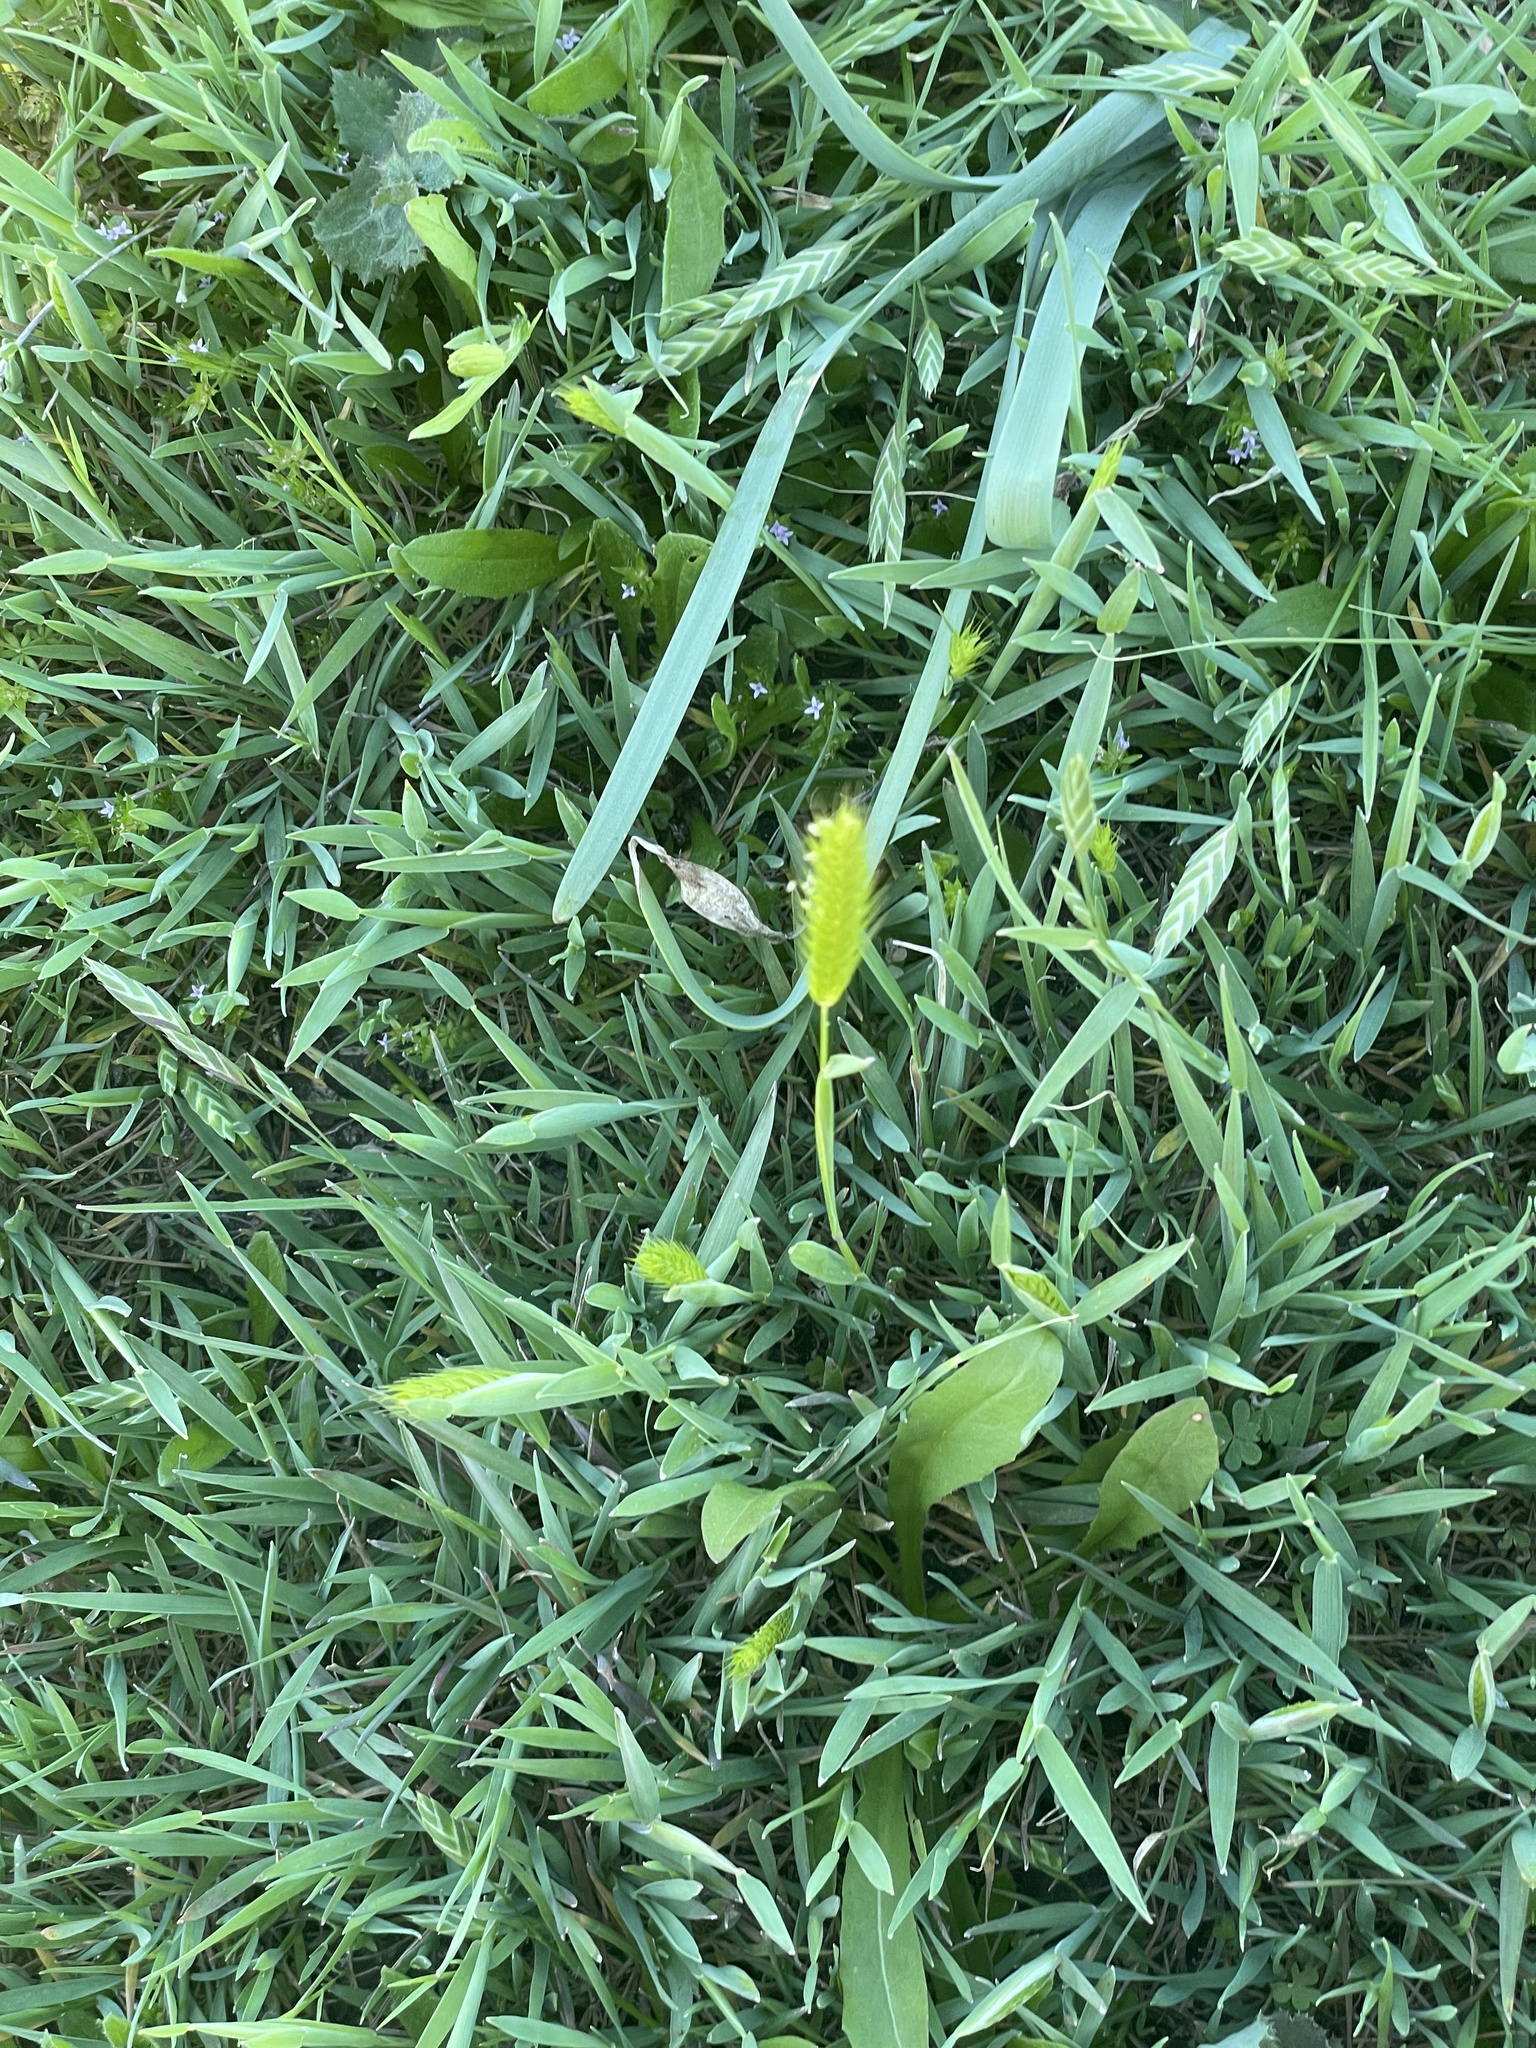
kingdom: Plantae
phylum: Tracheophyta
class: Liliopsida
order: Poales
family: Poaceae
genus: Hordeum
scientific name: Hordeum pusillum
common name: Little barley
